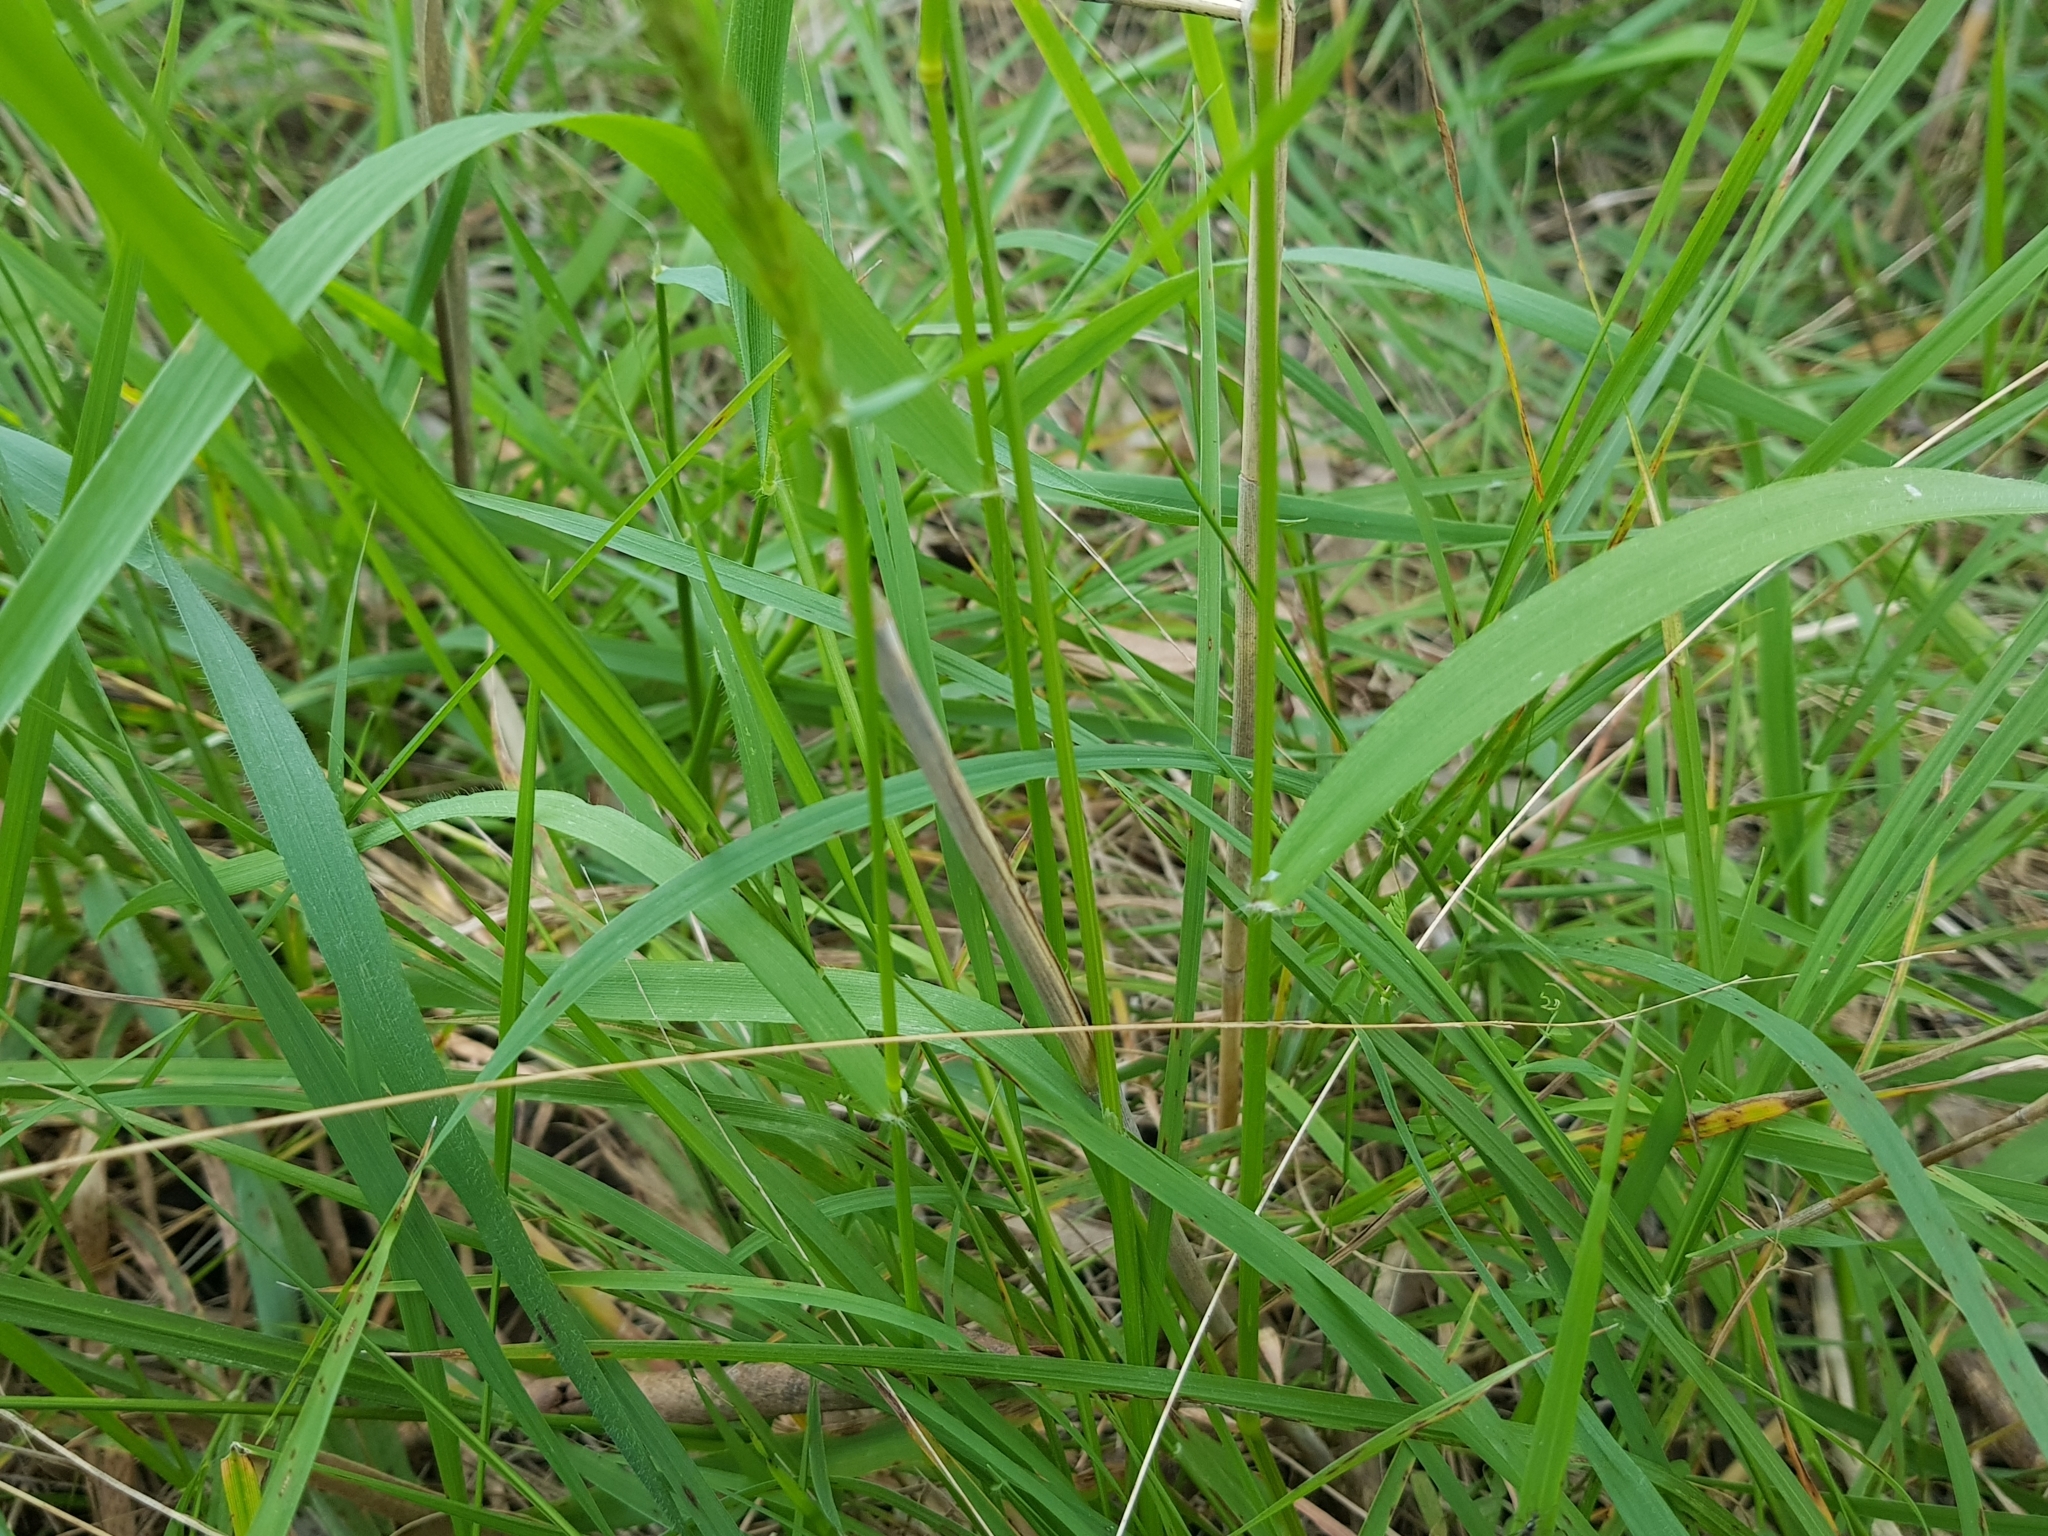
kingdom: Plantae
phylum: Tracheophyta
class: Liliopsida
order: Poales
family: Poaceae
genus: Anthoxanthum
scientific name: Anthoxanthum odoratum
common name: Sweet vernalgrass
